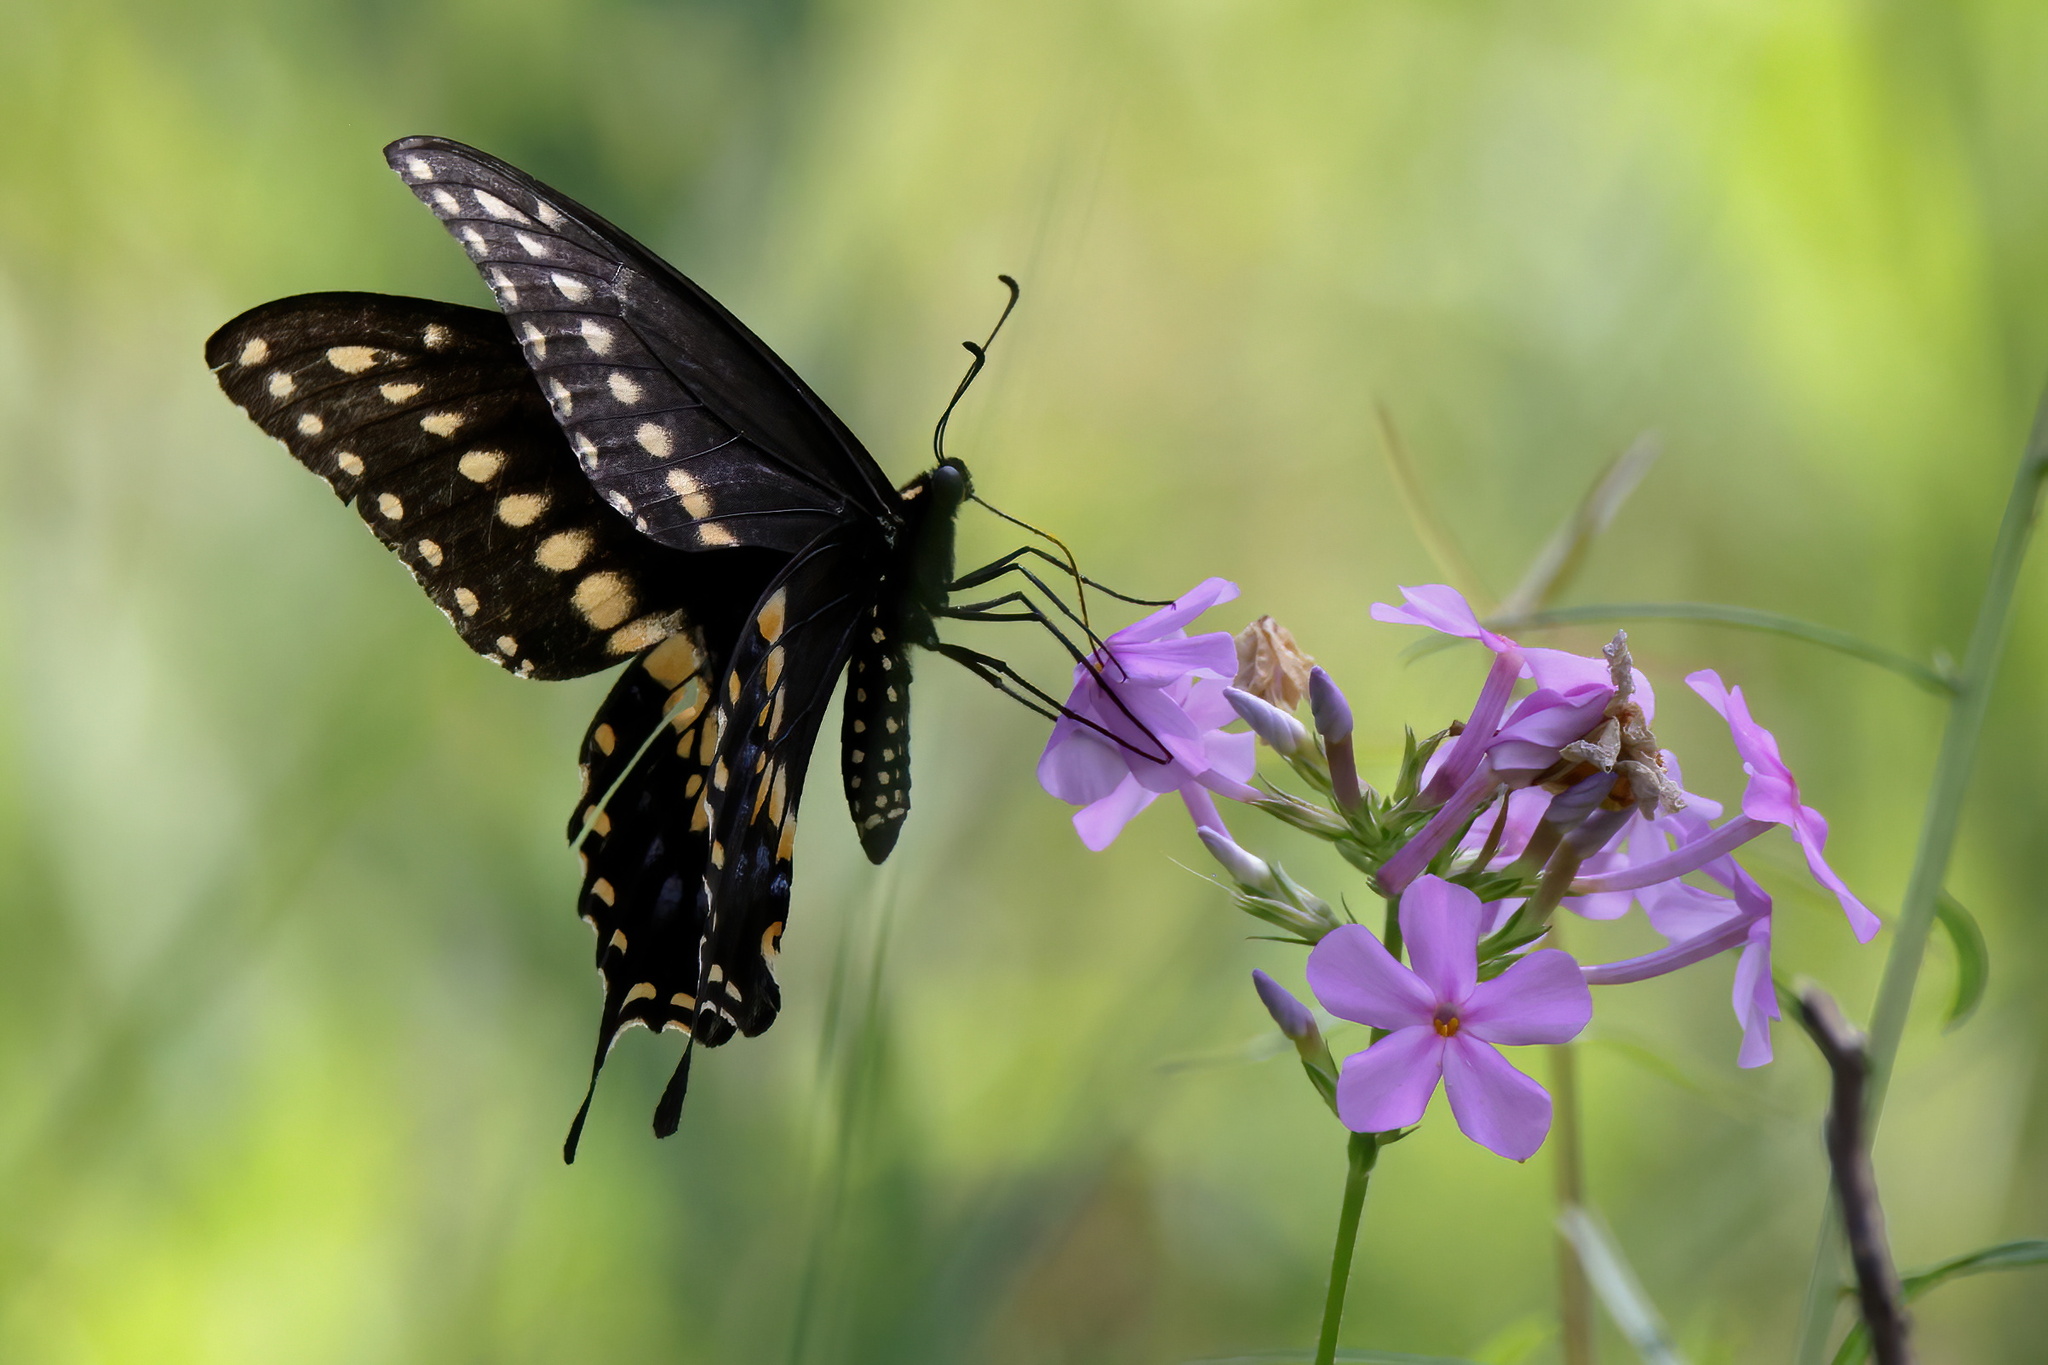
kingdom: Animalia
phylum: Arthropoda
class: Insecta
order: Lepidoptera
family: Papilionidae
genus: Papilio
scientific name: Papilio polyxenes
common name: Black swallowtail
